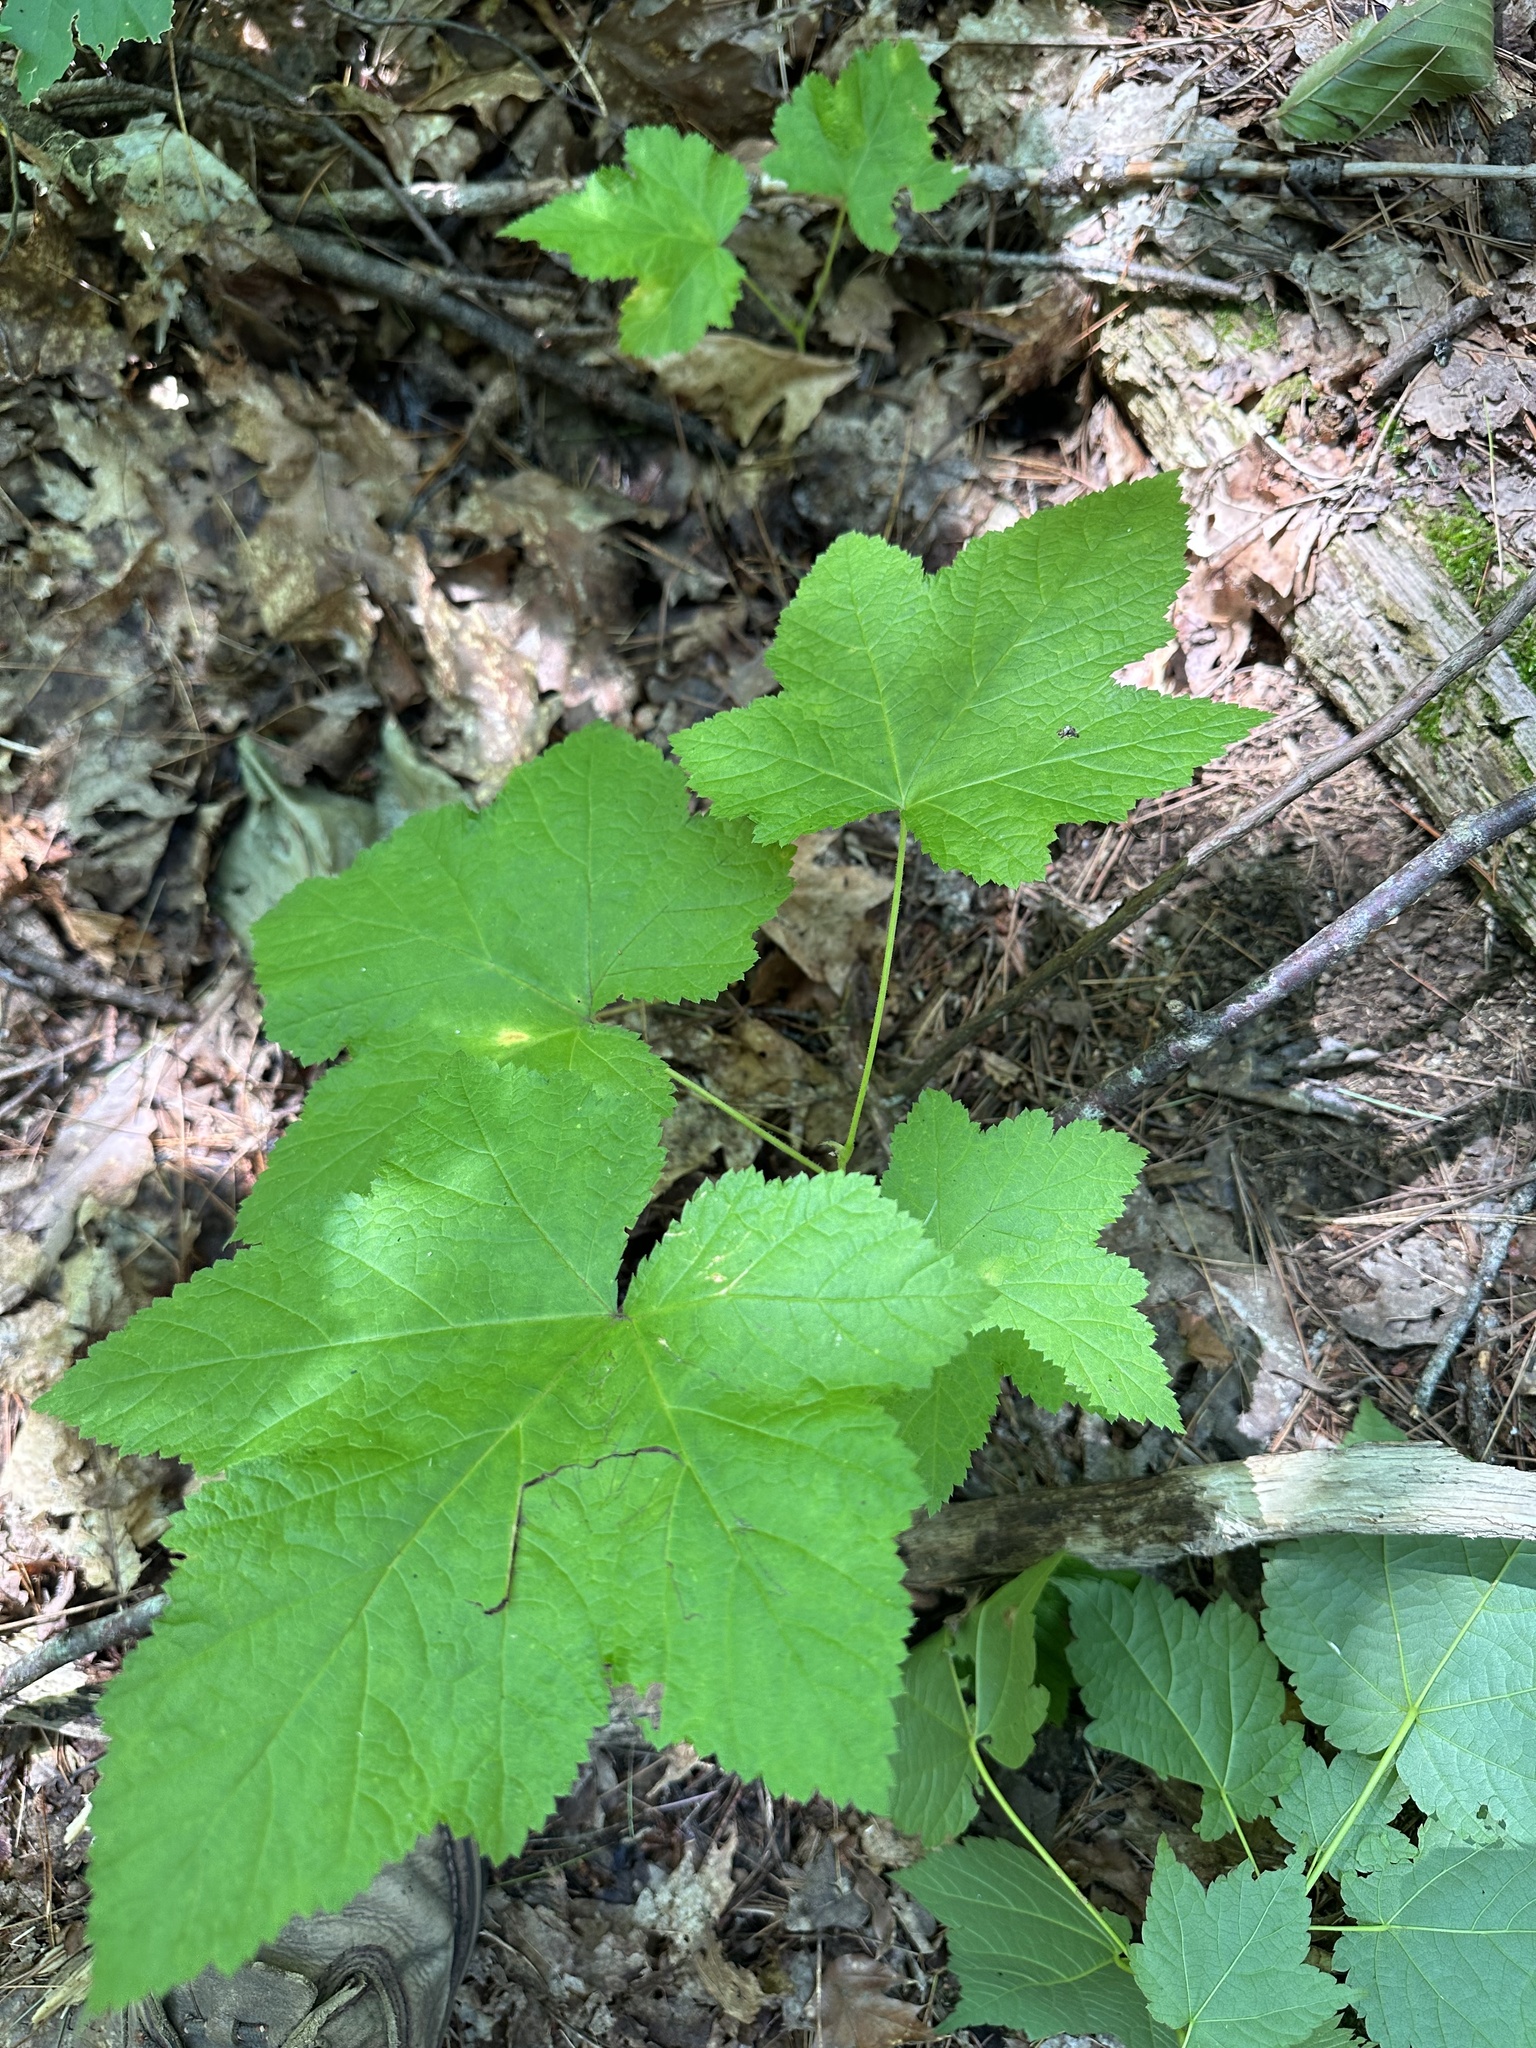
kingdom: Plantae
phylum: Tracheophyta
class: Magnoliopsida
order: Rosales
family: Rosaceae
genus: Rubus
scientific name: Rubus parviflorus
